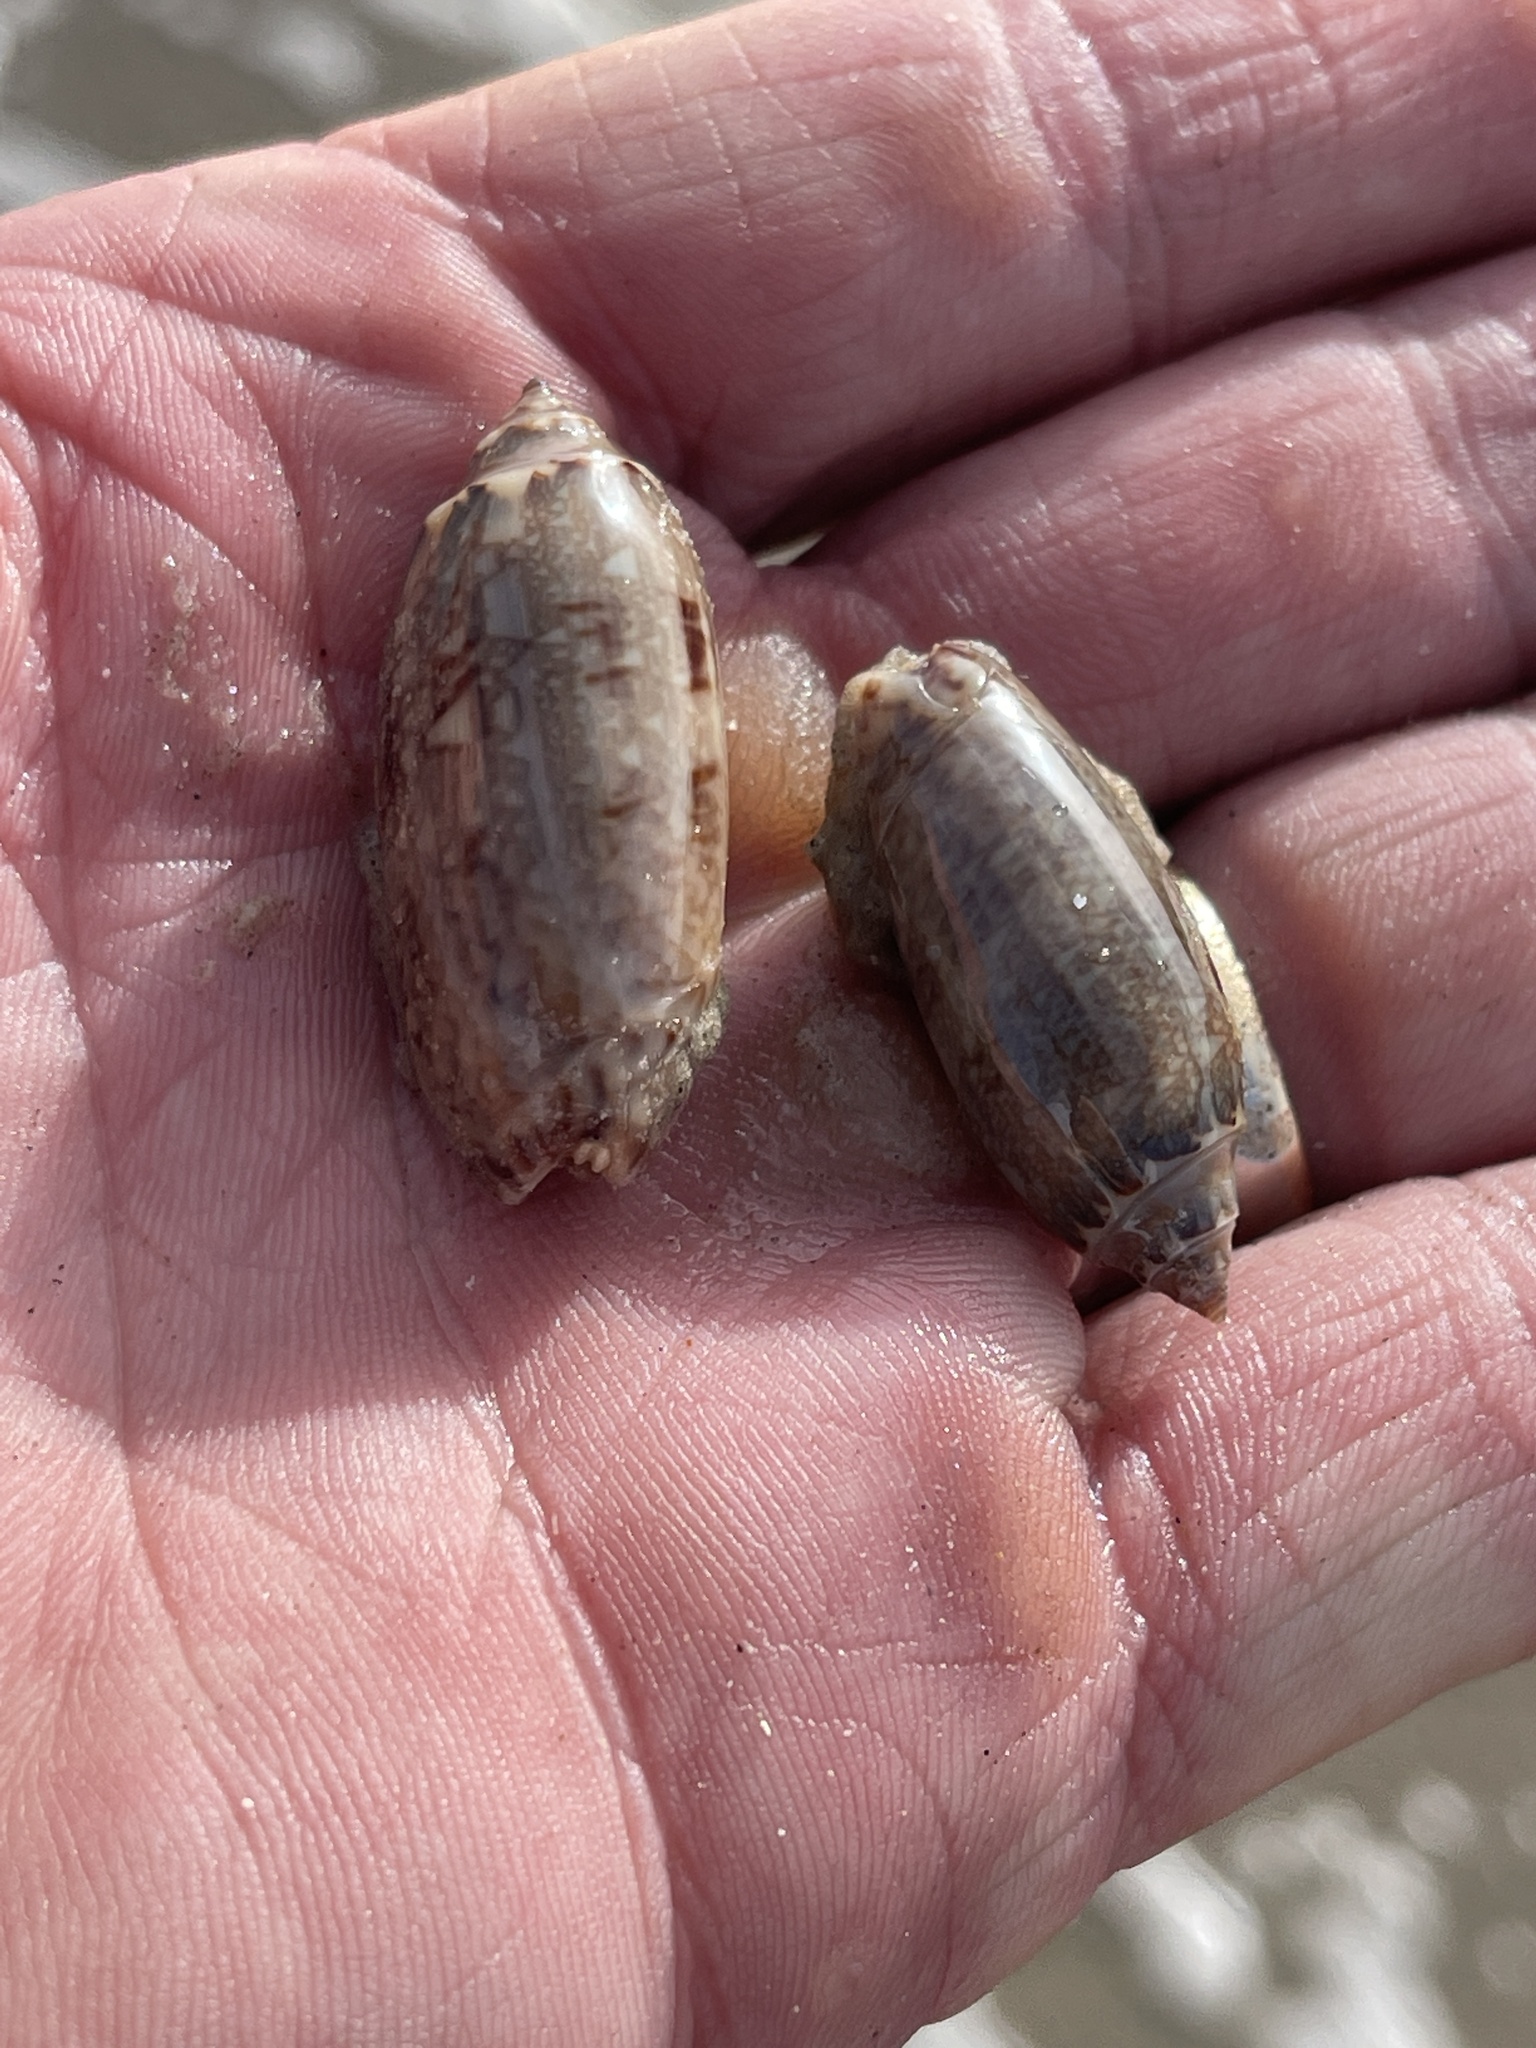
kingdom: Animalia
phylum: Mollusca
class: Gastropoda
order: Neogastropoda
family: Olividae
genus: Oliva
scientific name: Oliva sayana
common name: Lettered olive
